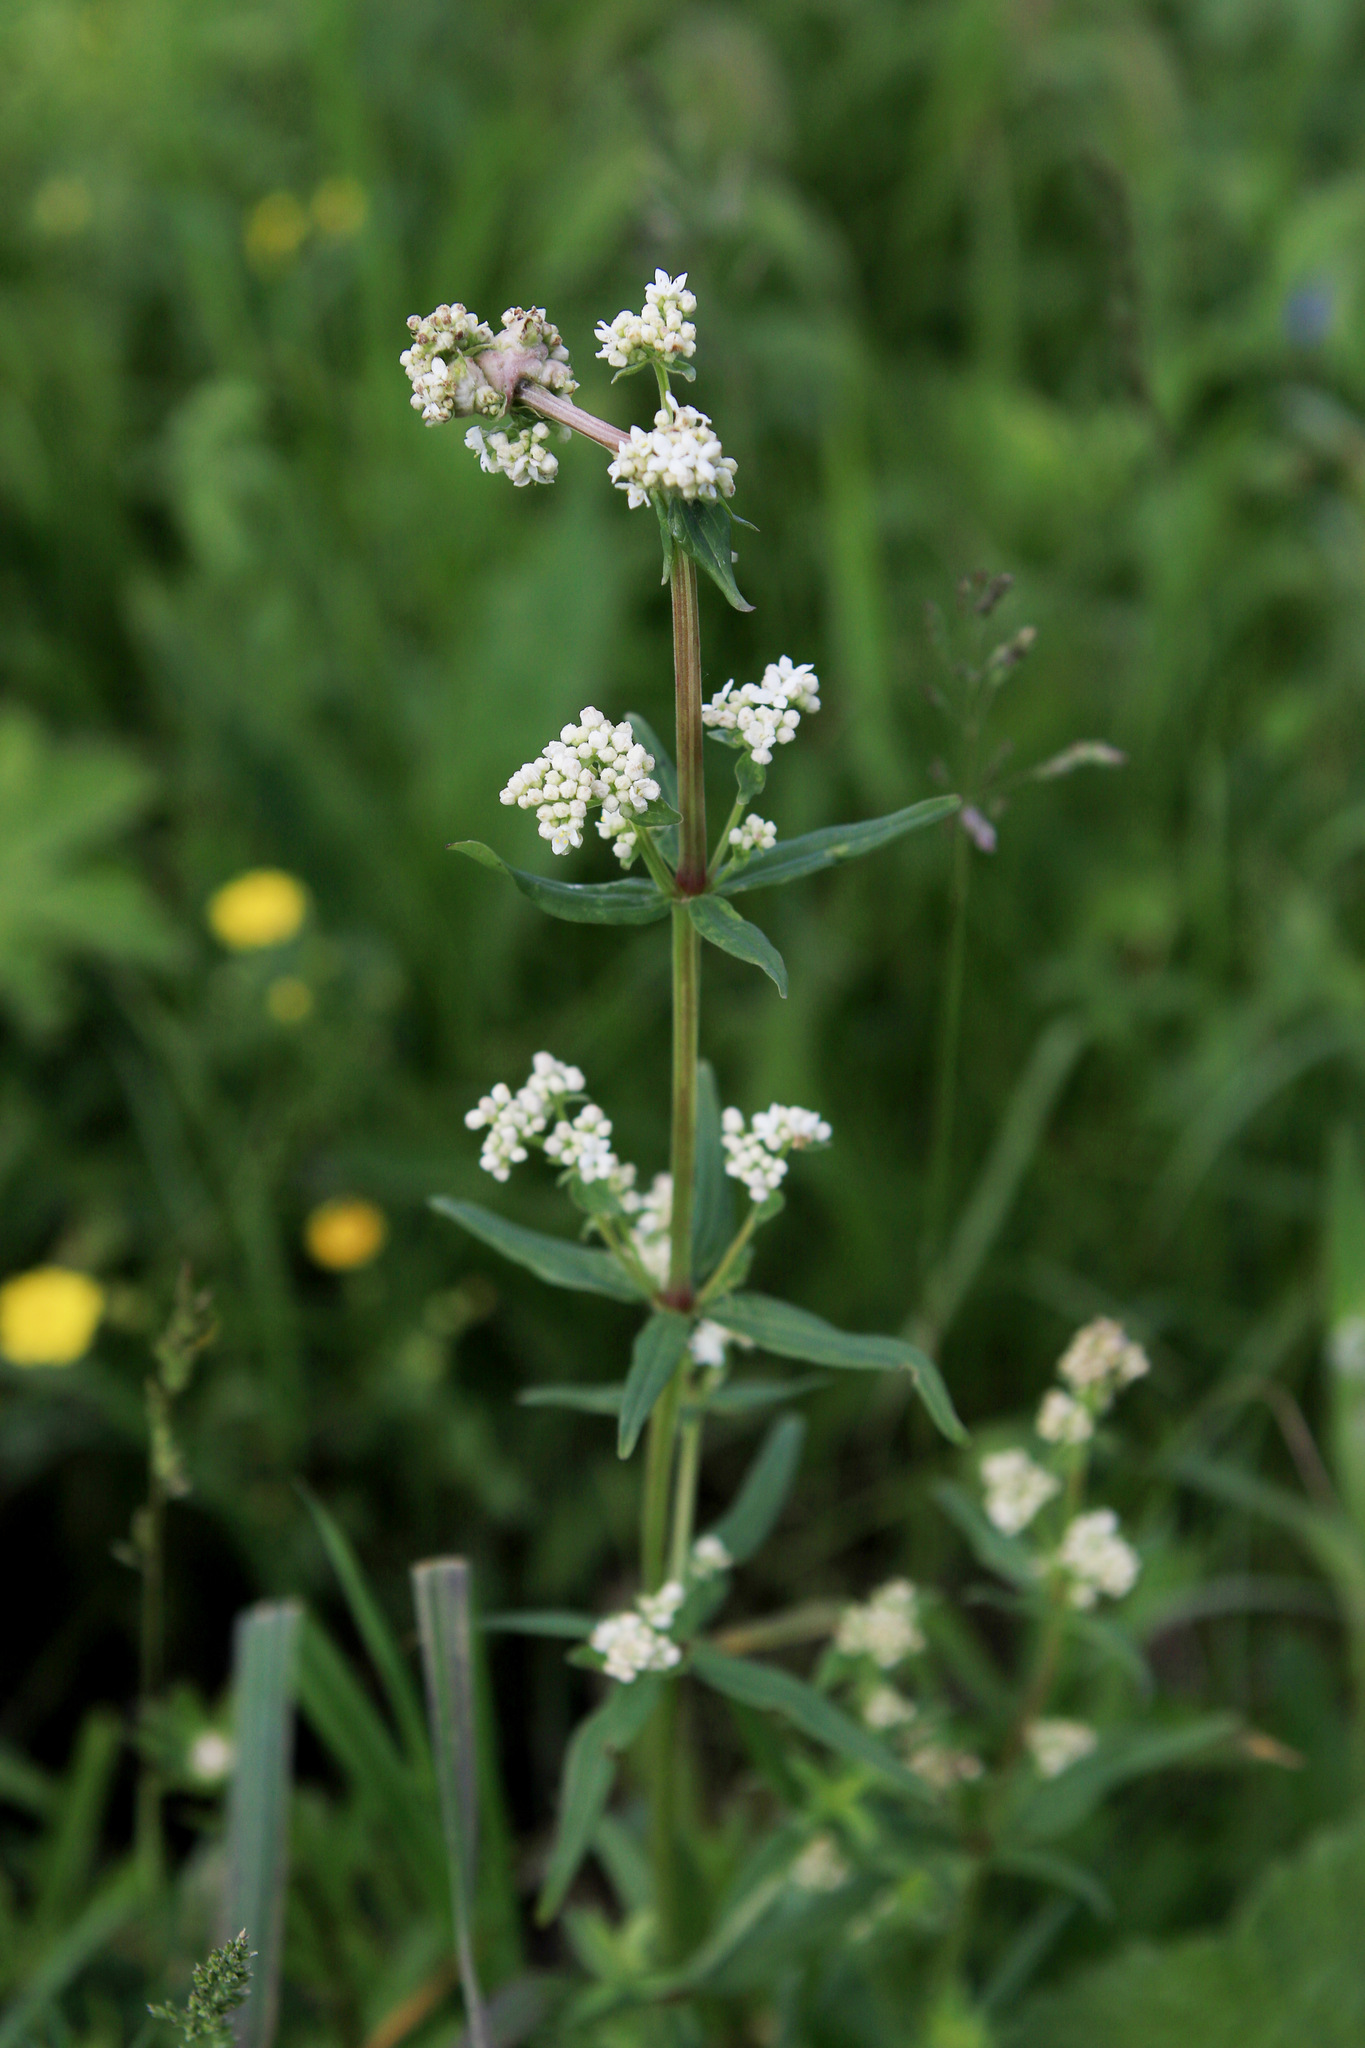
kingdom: Plantae
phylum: Tracheophyta
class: Magnoliopsida
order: Gentianales
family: Rubiaceae
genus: Galium
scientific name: Galium boreale
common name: Northern bedstraw
